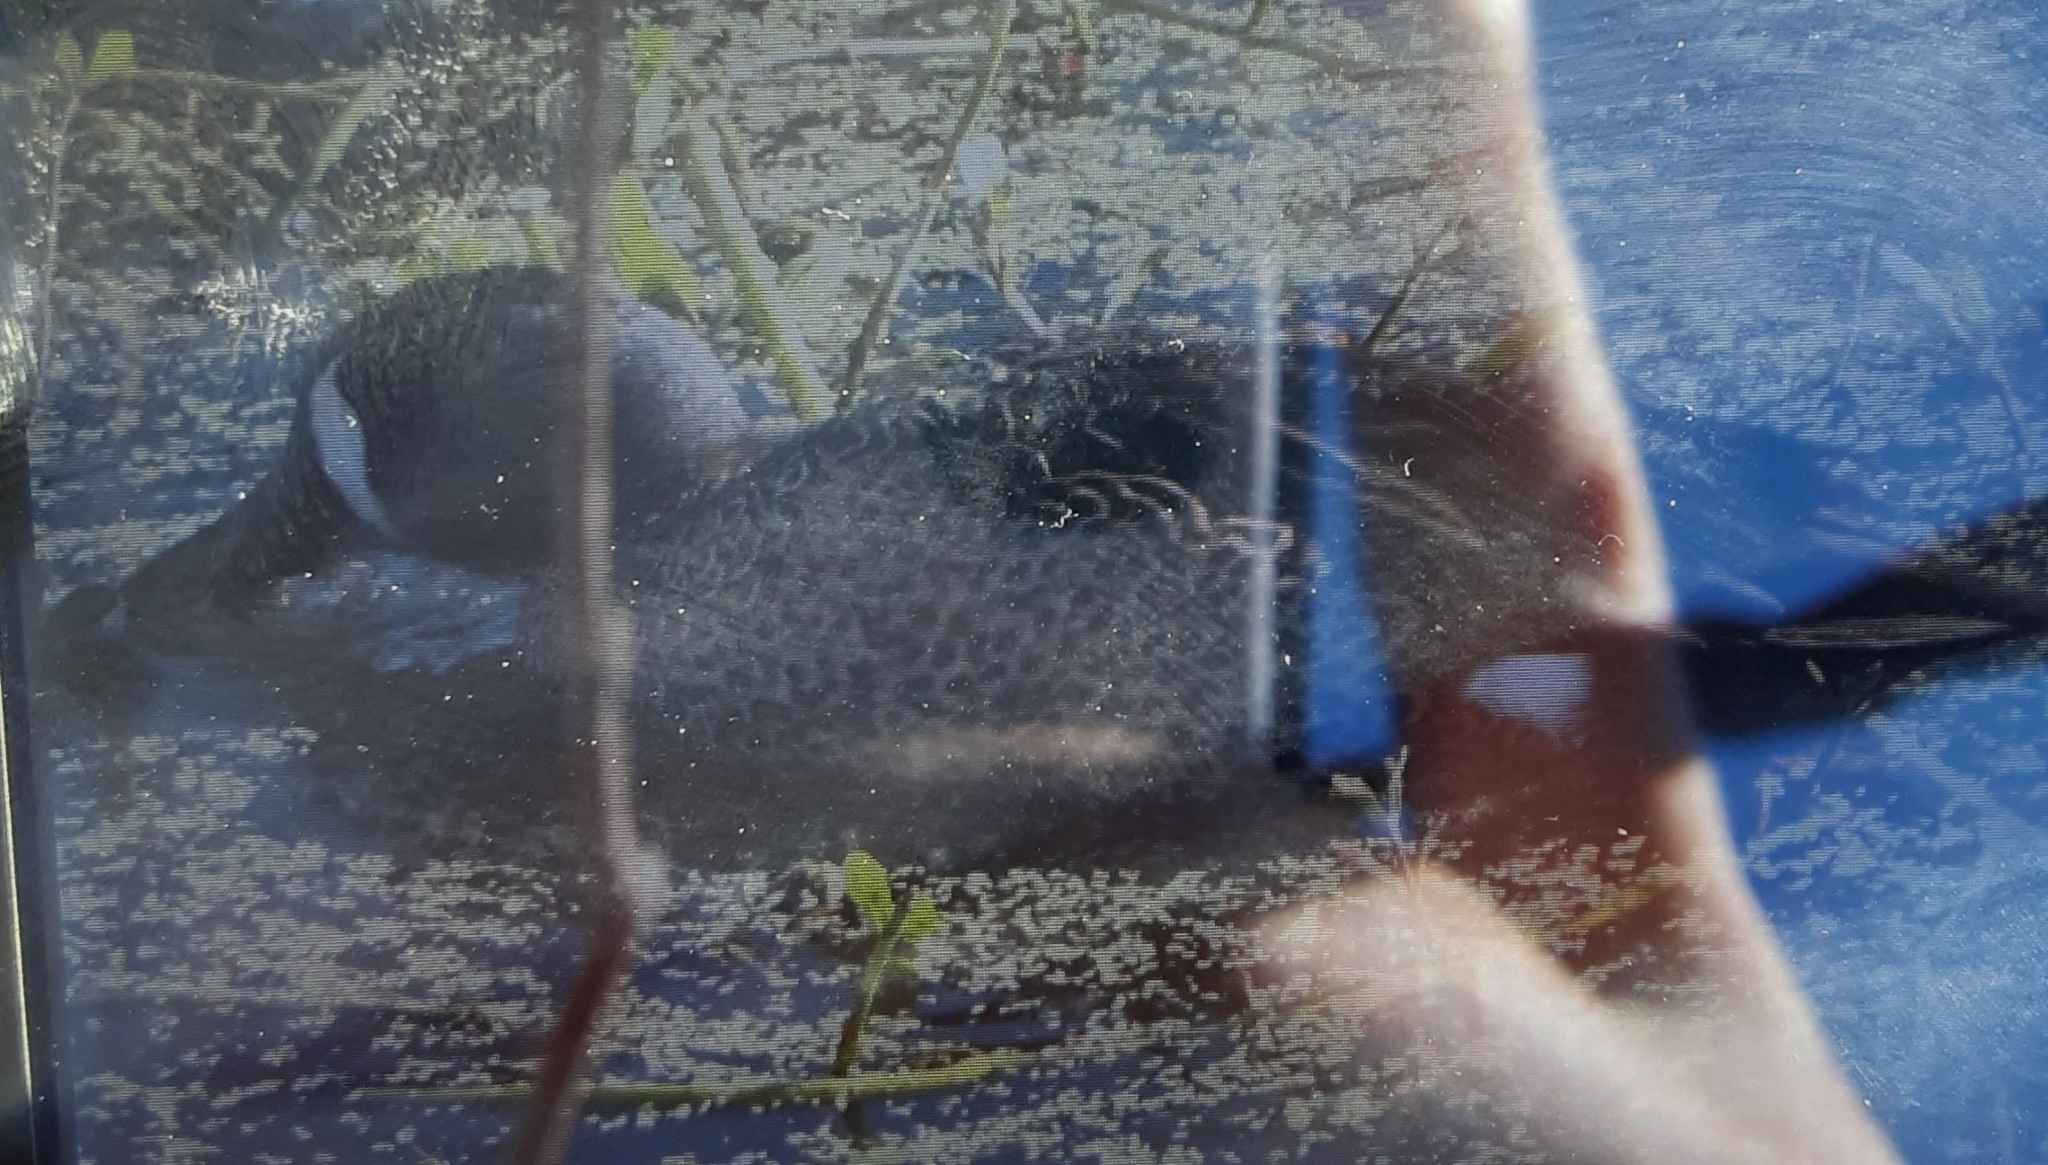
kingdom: Animalia
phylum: Chordata
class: Aves
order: Anseriformes
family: Anatidae
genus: Spatula
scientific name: Spatula discors
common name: Blue-winged teal
